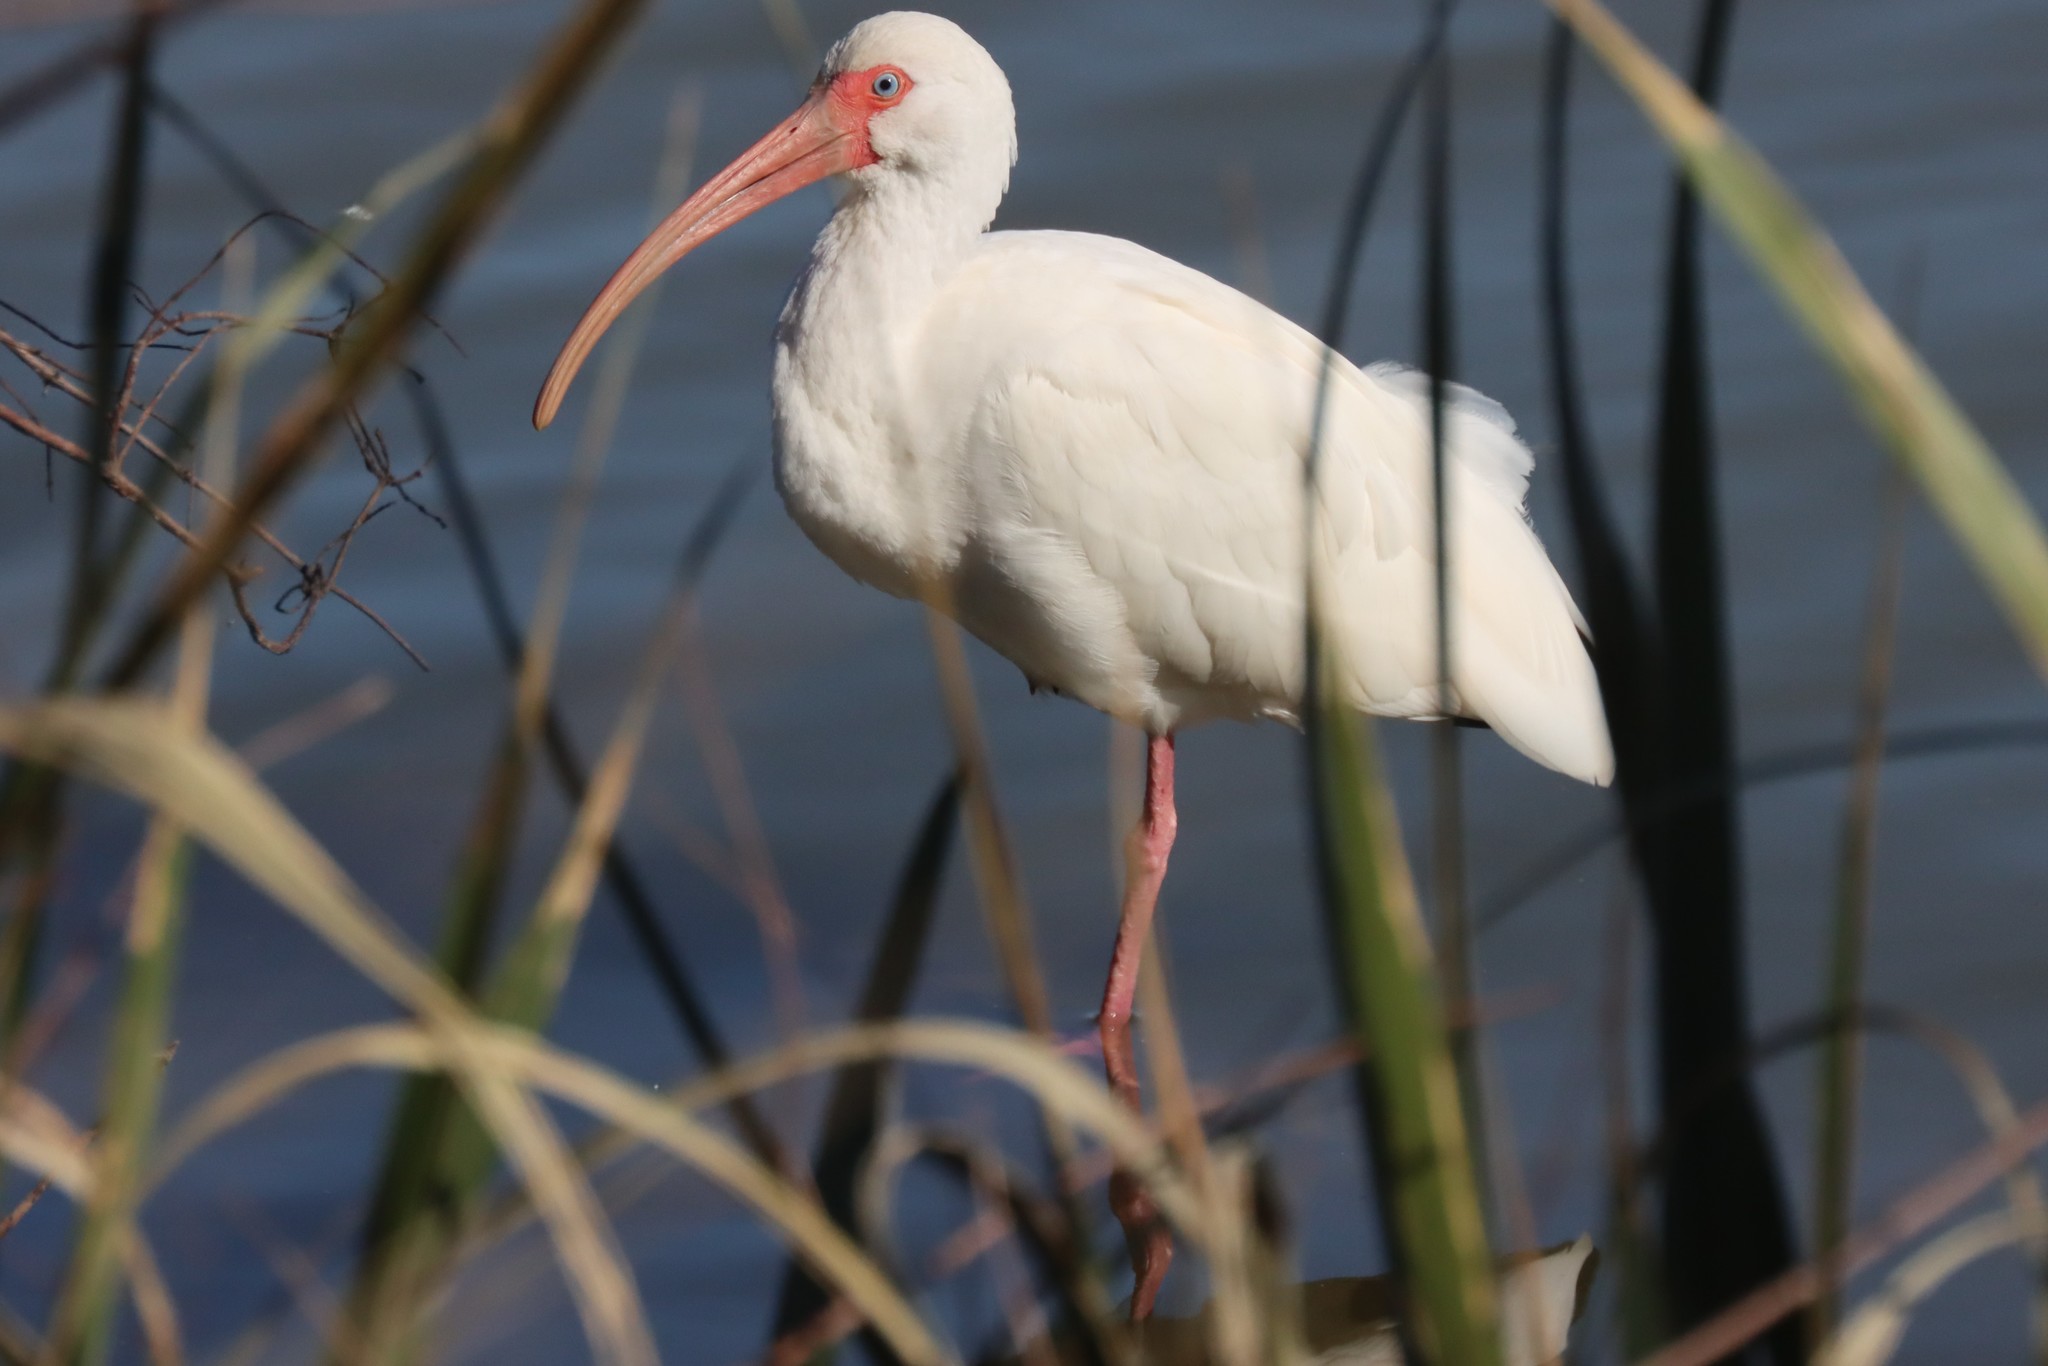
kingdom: Animalia
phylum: Chordata
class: Aves
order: Pelecaniformes
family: Threskiornithidae
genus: Eudocimus
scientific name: Eudocimus albus
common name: White ibis
